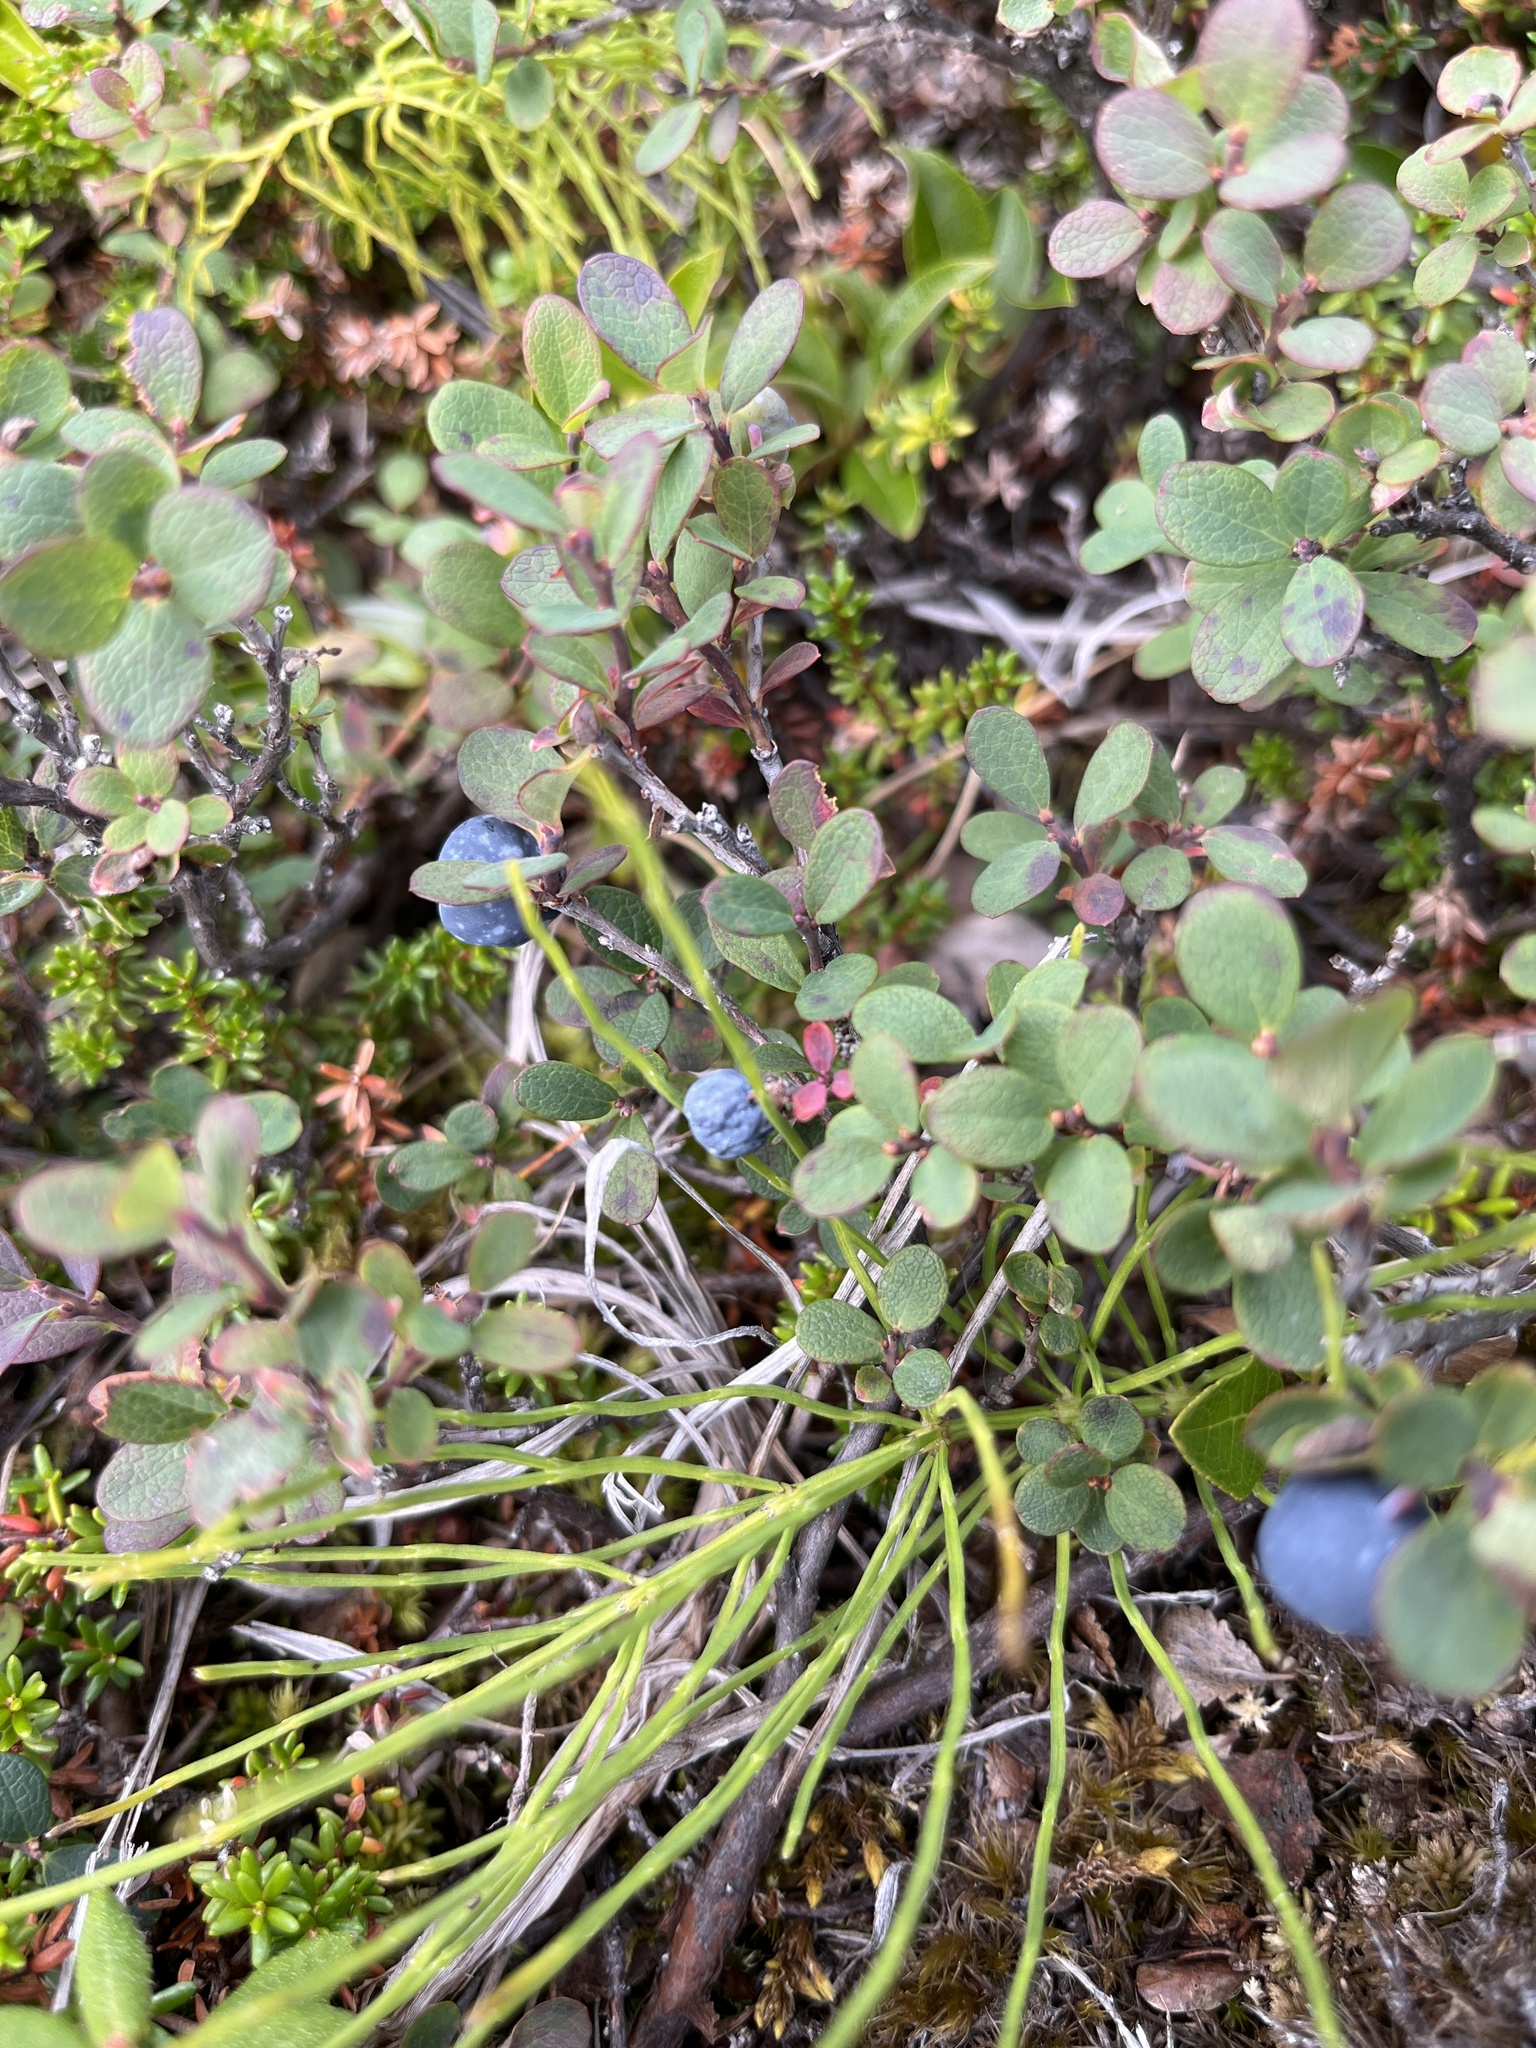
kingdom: Plantae
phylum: Tracheophyta
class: Magnoliopsida
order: Ericales
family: Ericaceae
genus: Vaccinium
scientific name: Vaccinium uliginosum
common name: Bog bilberry
